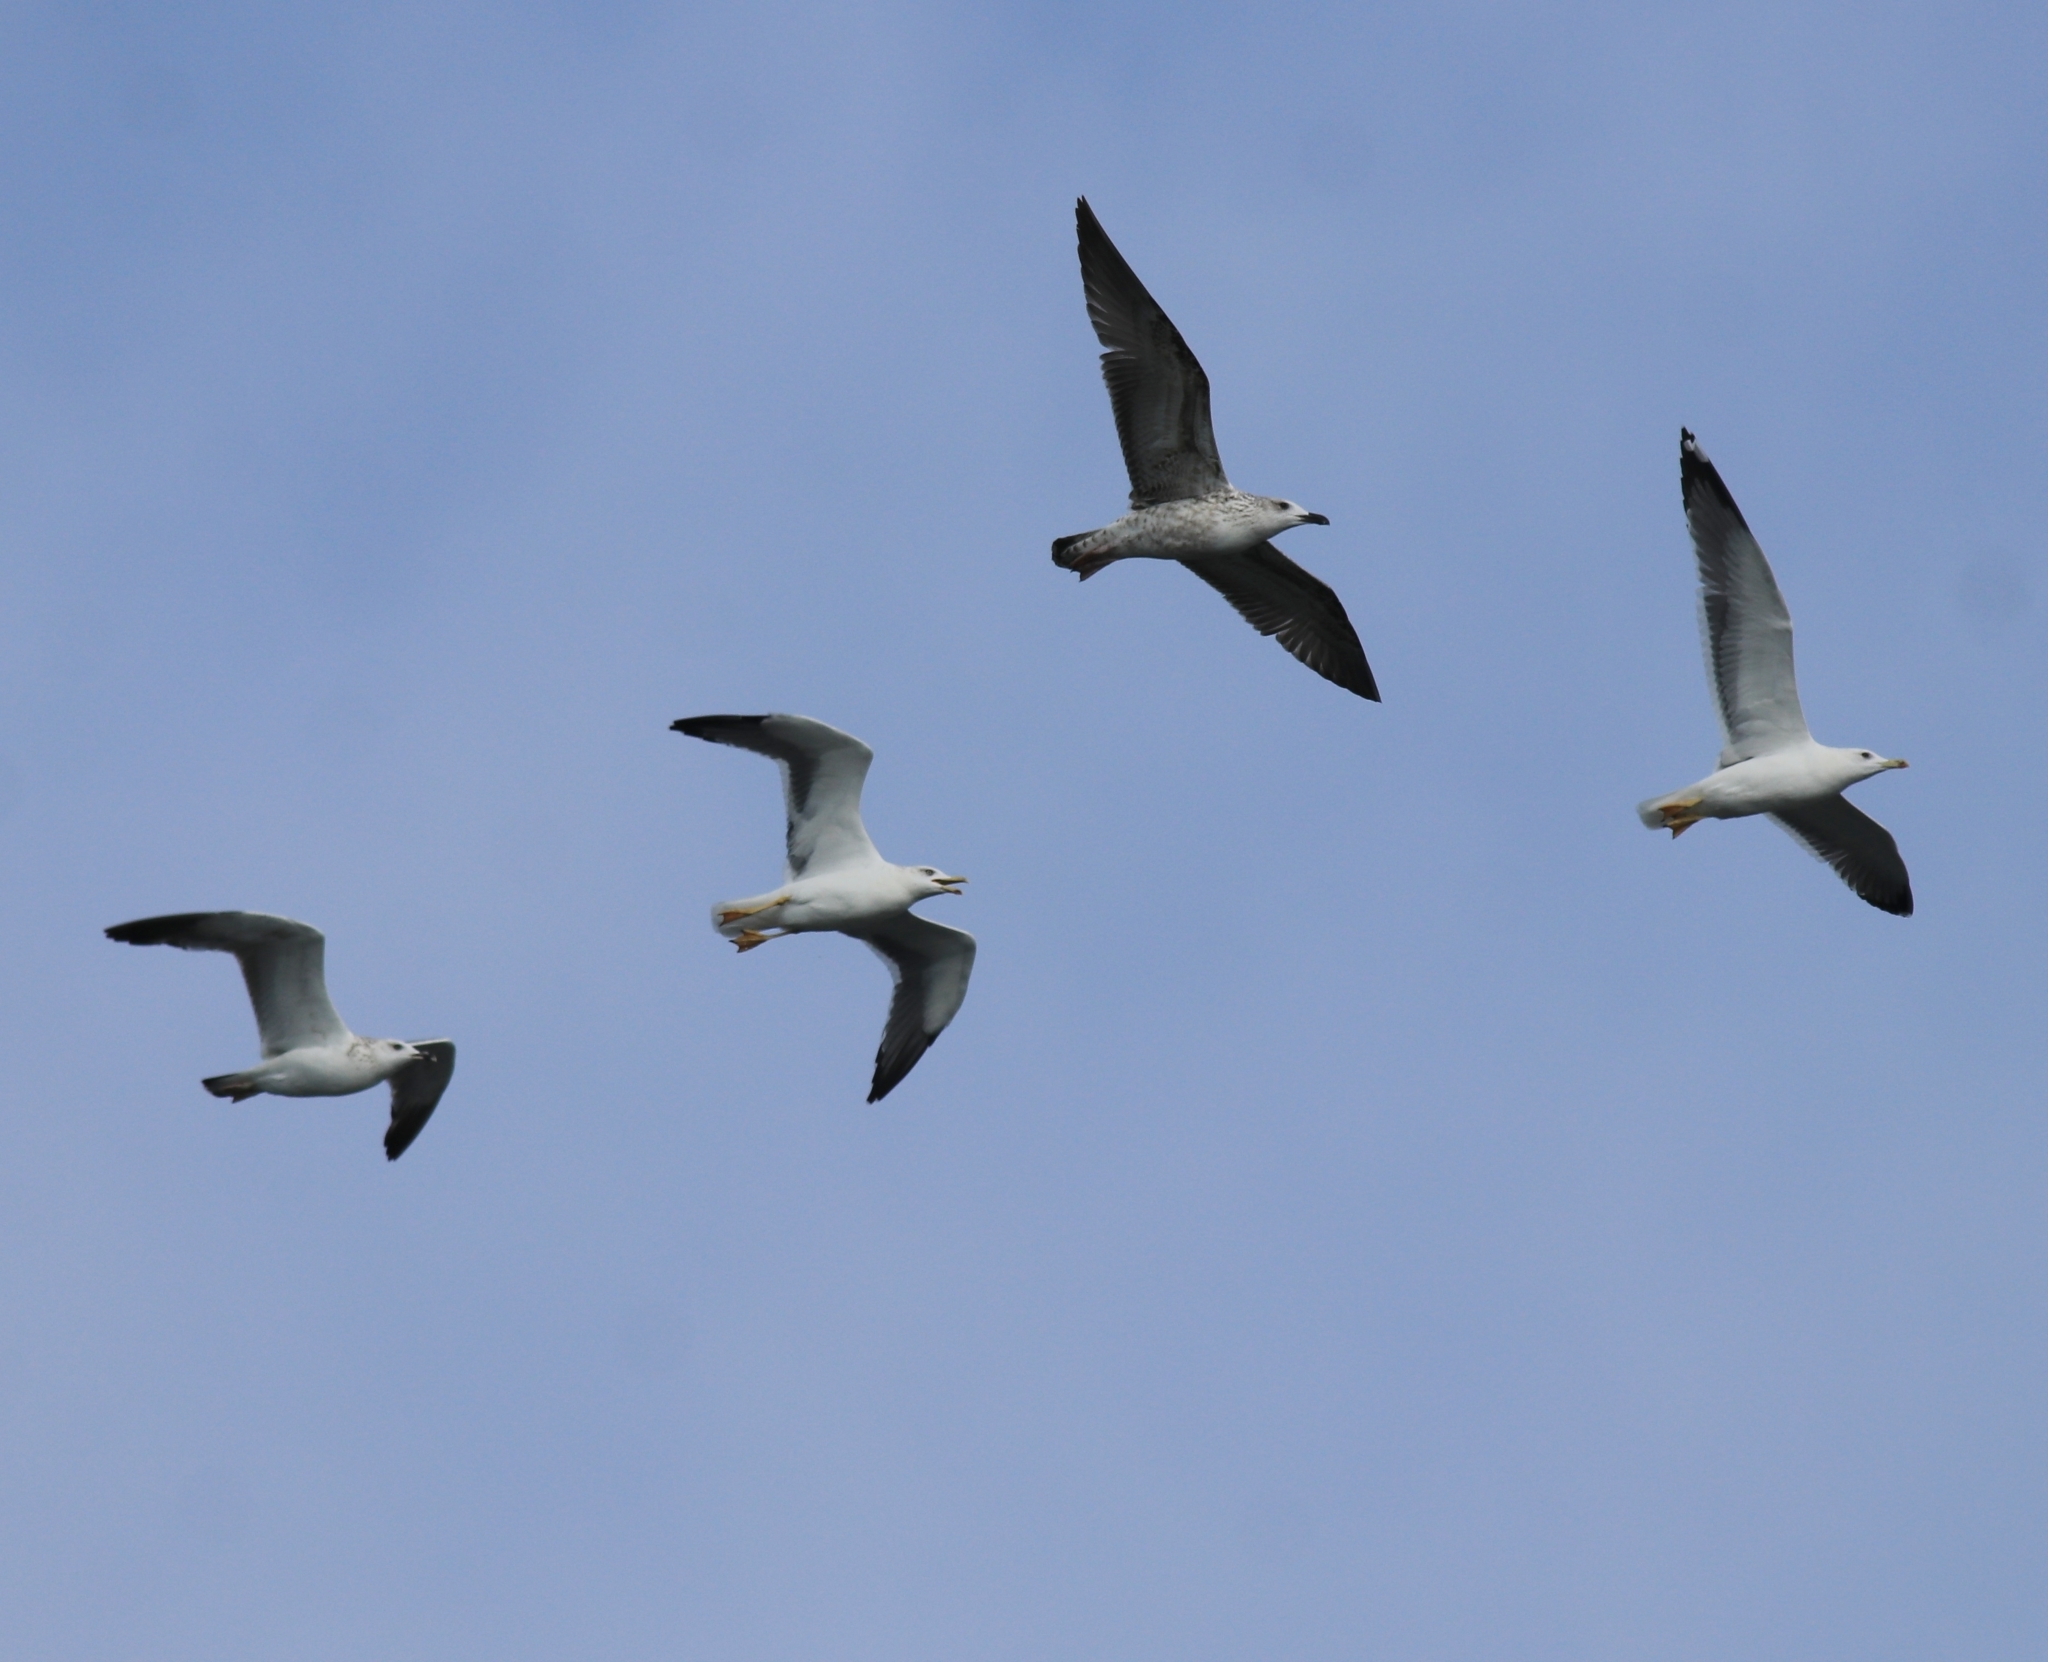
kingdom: Animalia
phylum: Chordata
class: Aves
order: Charadriiformes
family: Laridae
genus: Larus
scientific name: Larus fuscus
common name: Lesser black-backed gull
